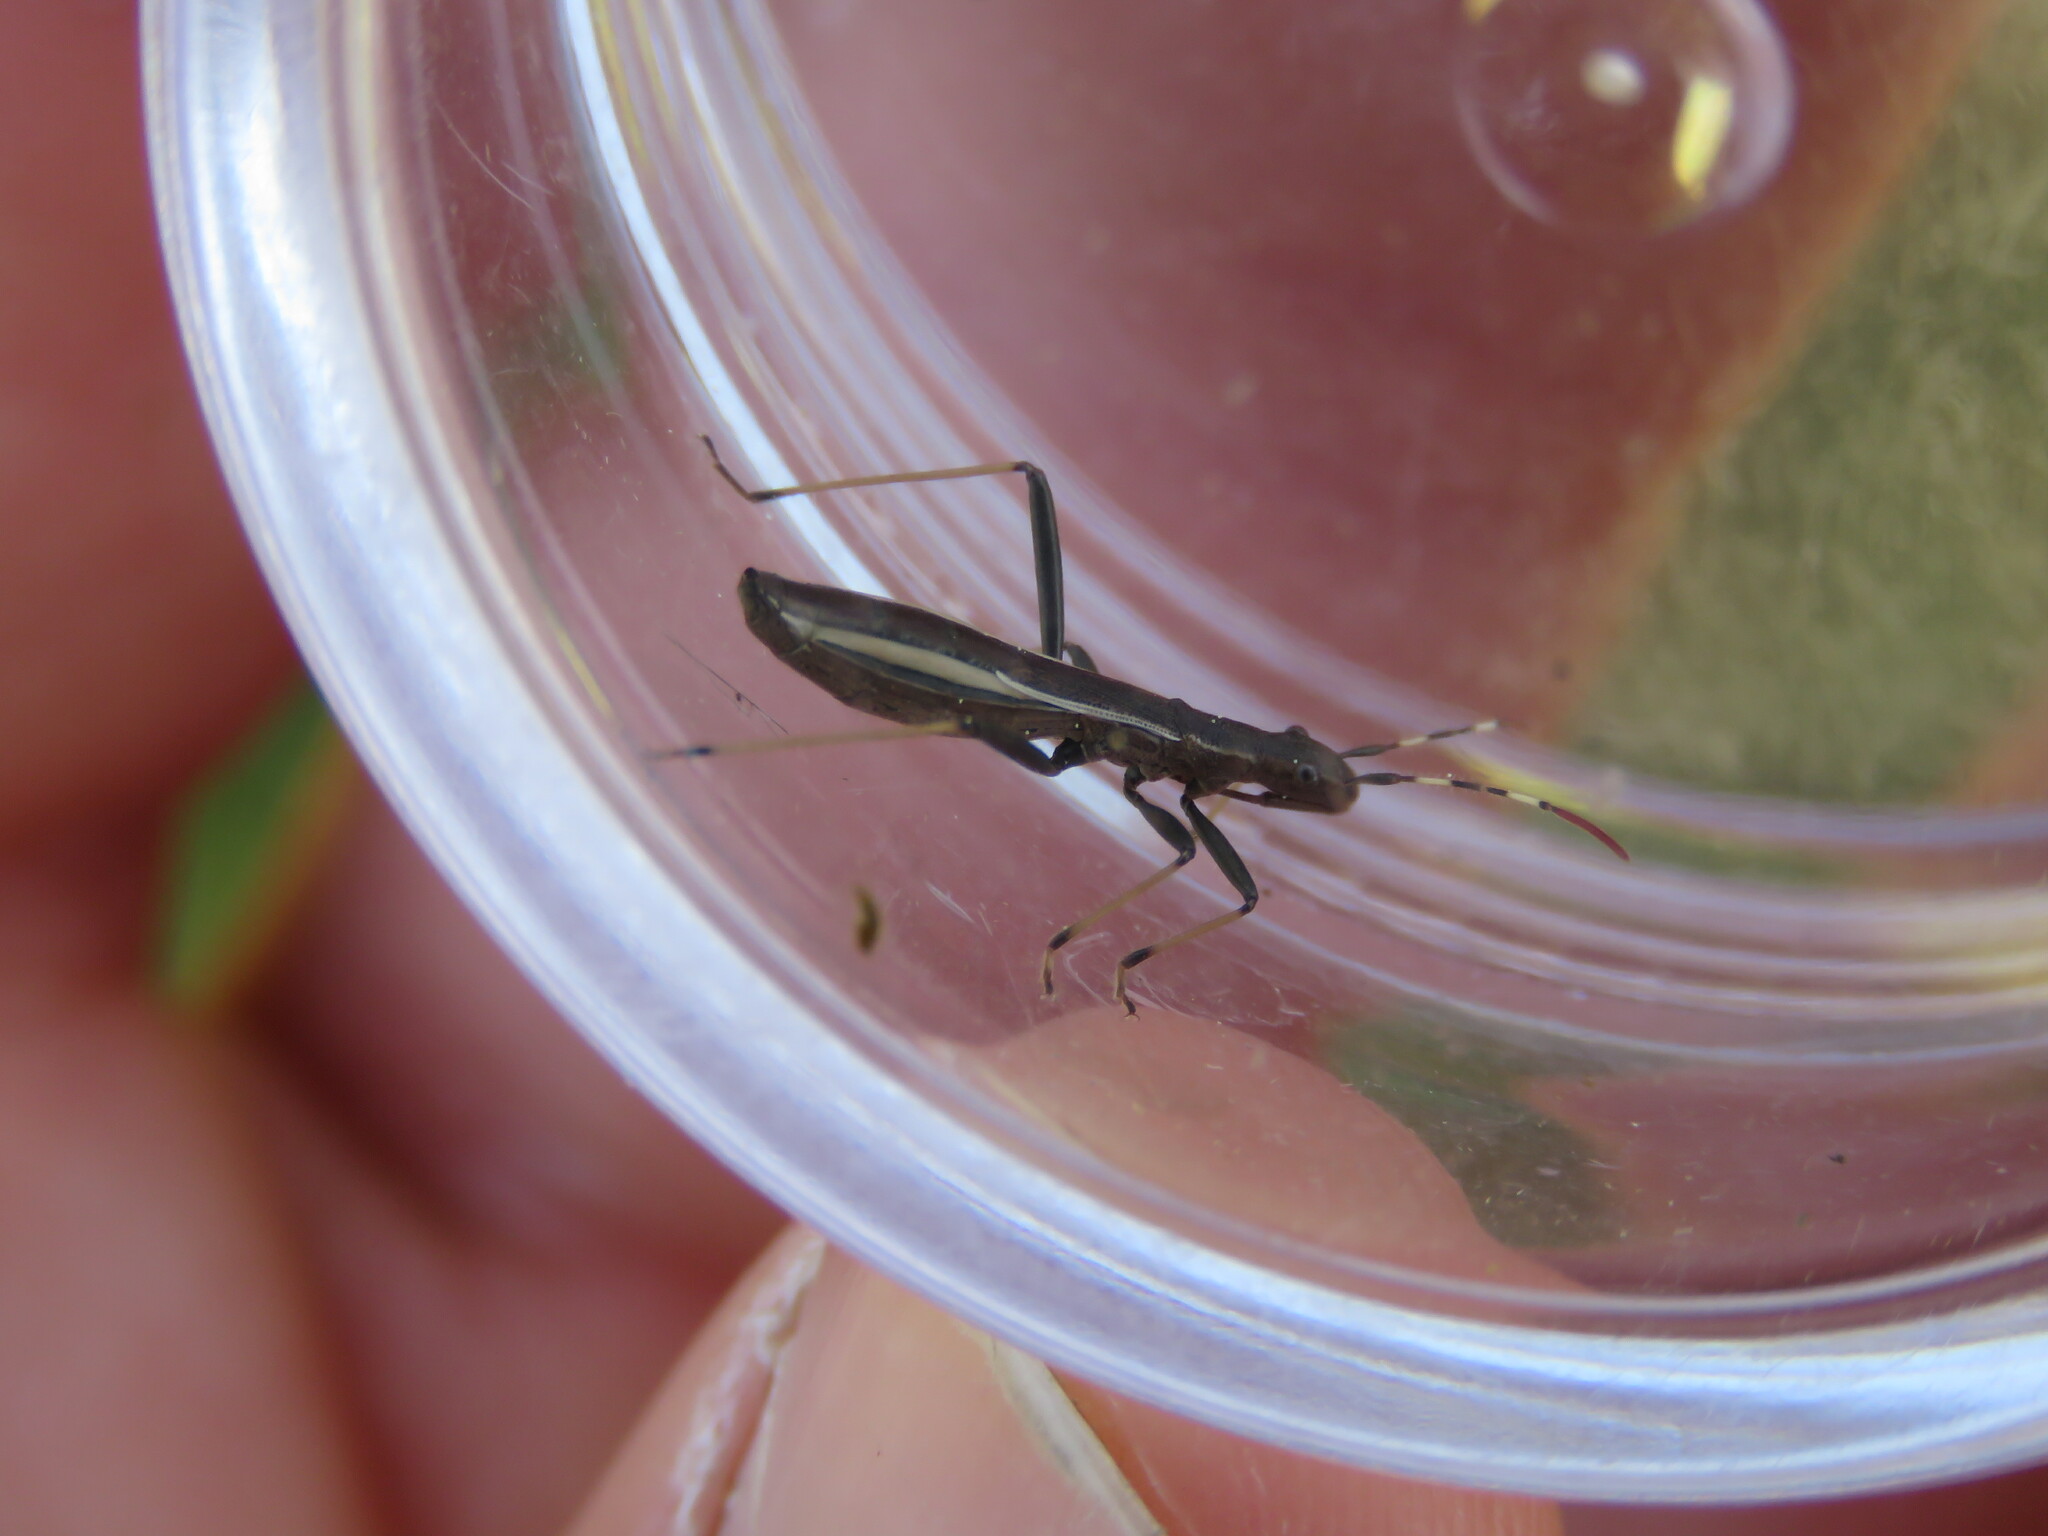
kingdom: Animalia
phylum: Arthropoda
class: Insecta
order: Hemiptera
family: Alydidae
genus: Micrelytra
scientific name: Micrelytra fossularum
